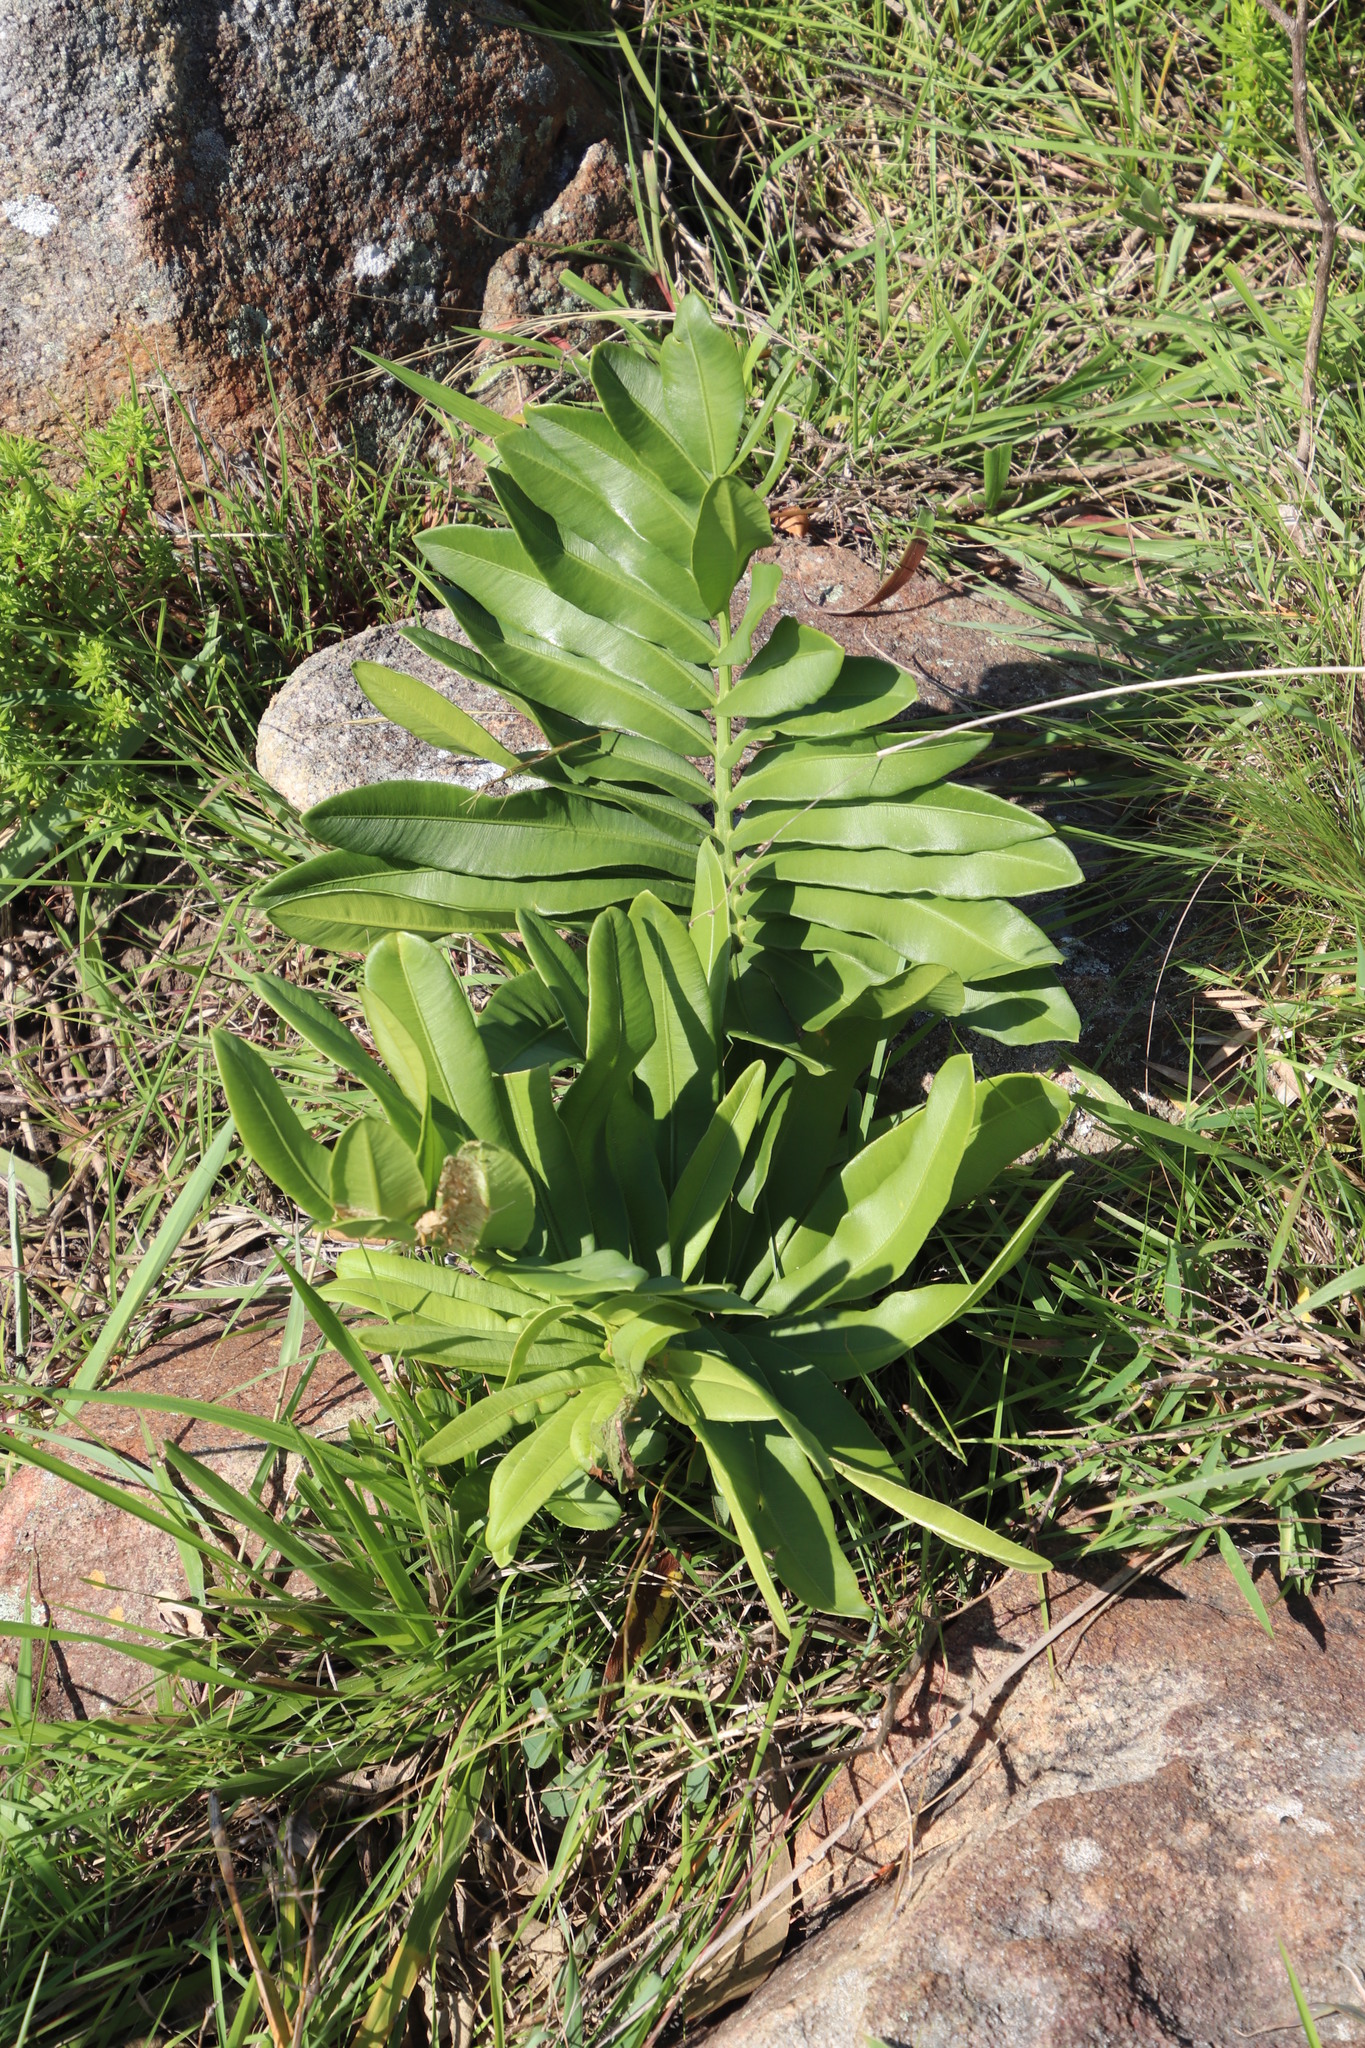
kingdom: Plantae
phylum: Tracheophyta
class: Cycadopsida
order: Cycadales
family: Zamiaceae
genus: Stangeria
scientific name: Stangeria eriopus
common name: Natal grass cycad
